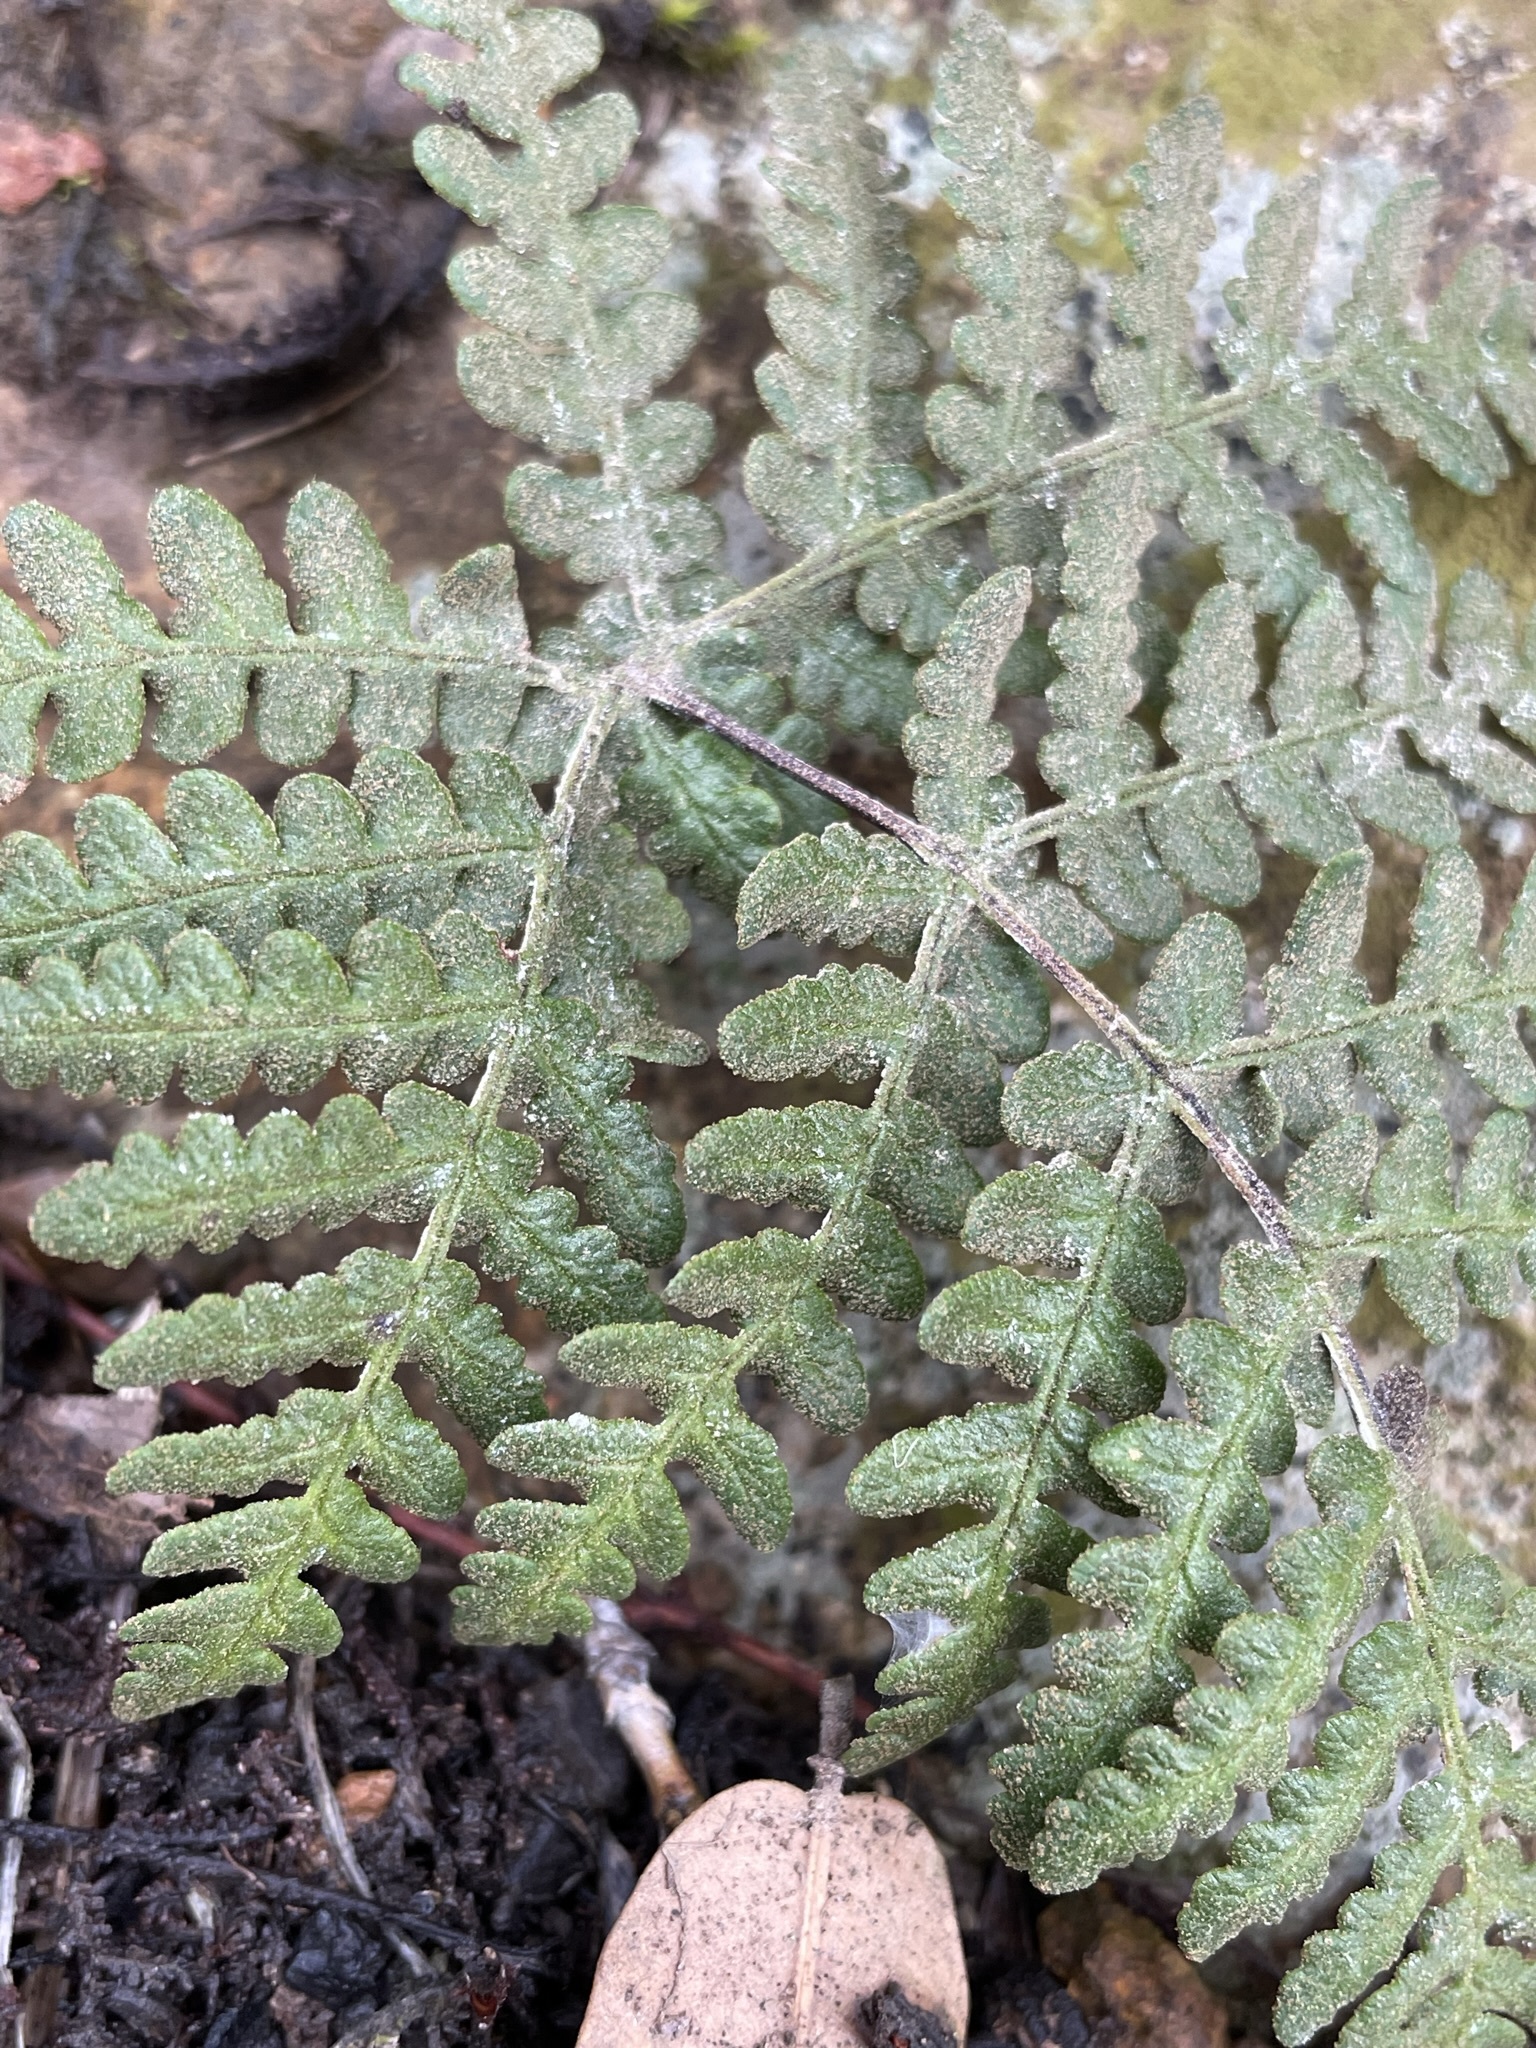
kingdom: Plantae
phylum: Tracheophyta
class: Polypodiopsida
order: Polypodiales
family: Pteridaceae
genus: Pentagramma
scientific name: Pentagramma glanduloviscida
